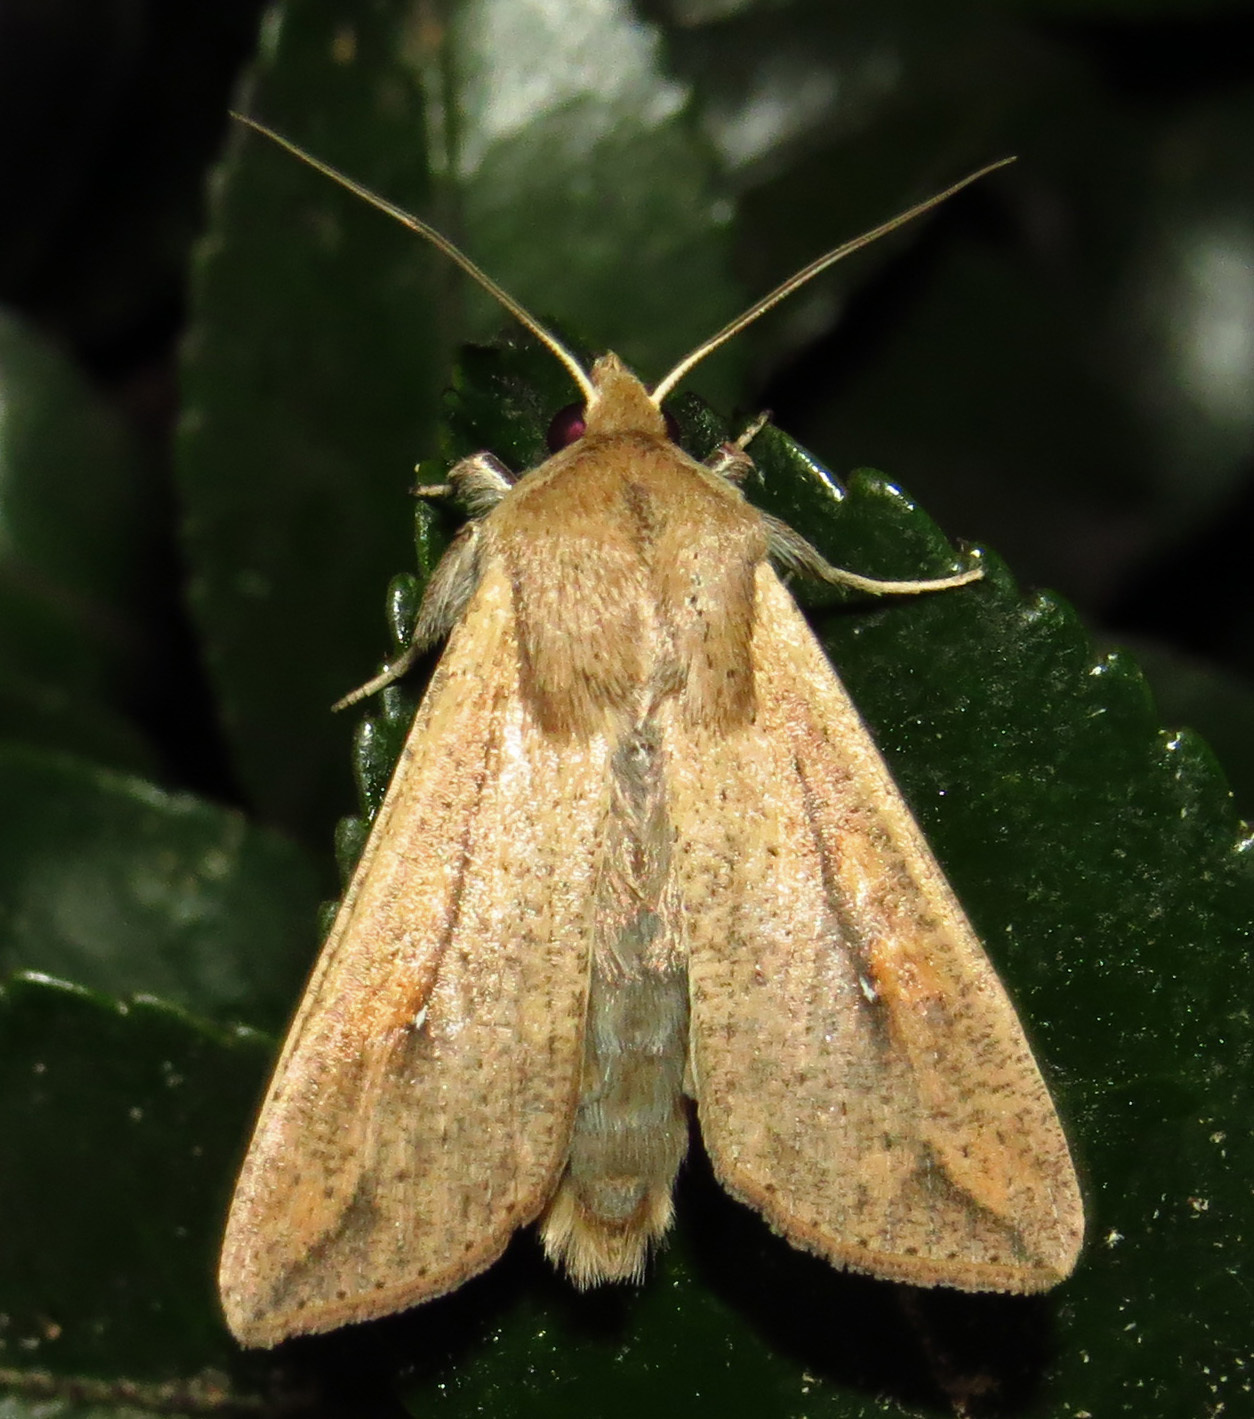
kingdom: Animalia
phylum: Arthropoda
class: Insecta
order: Lepidoptera
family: Noctuidae
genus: Mythimna
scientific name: Mythimna unipuncta
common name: White-speck
